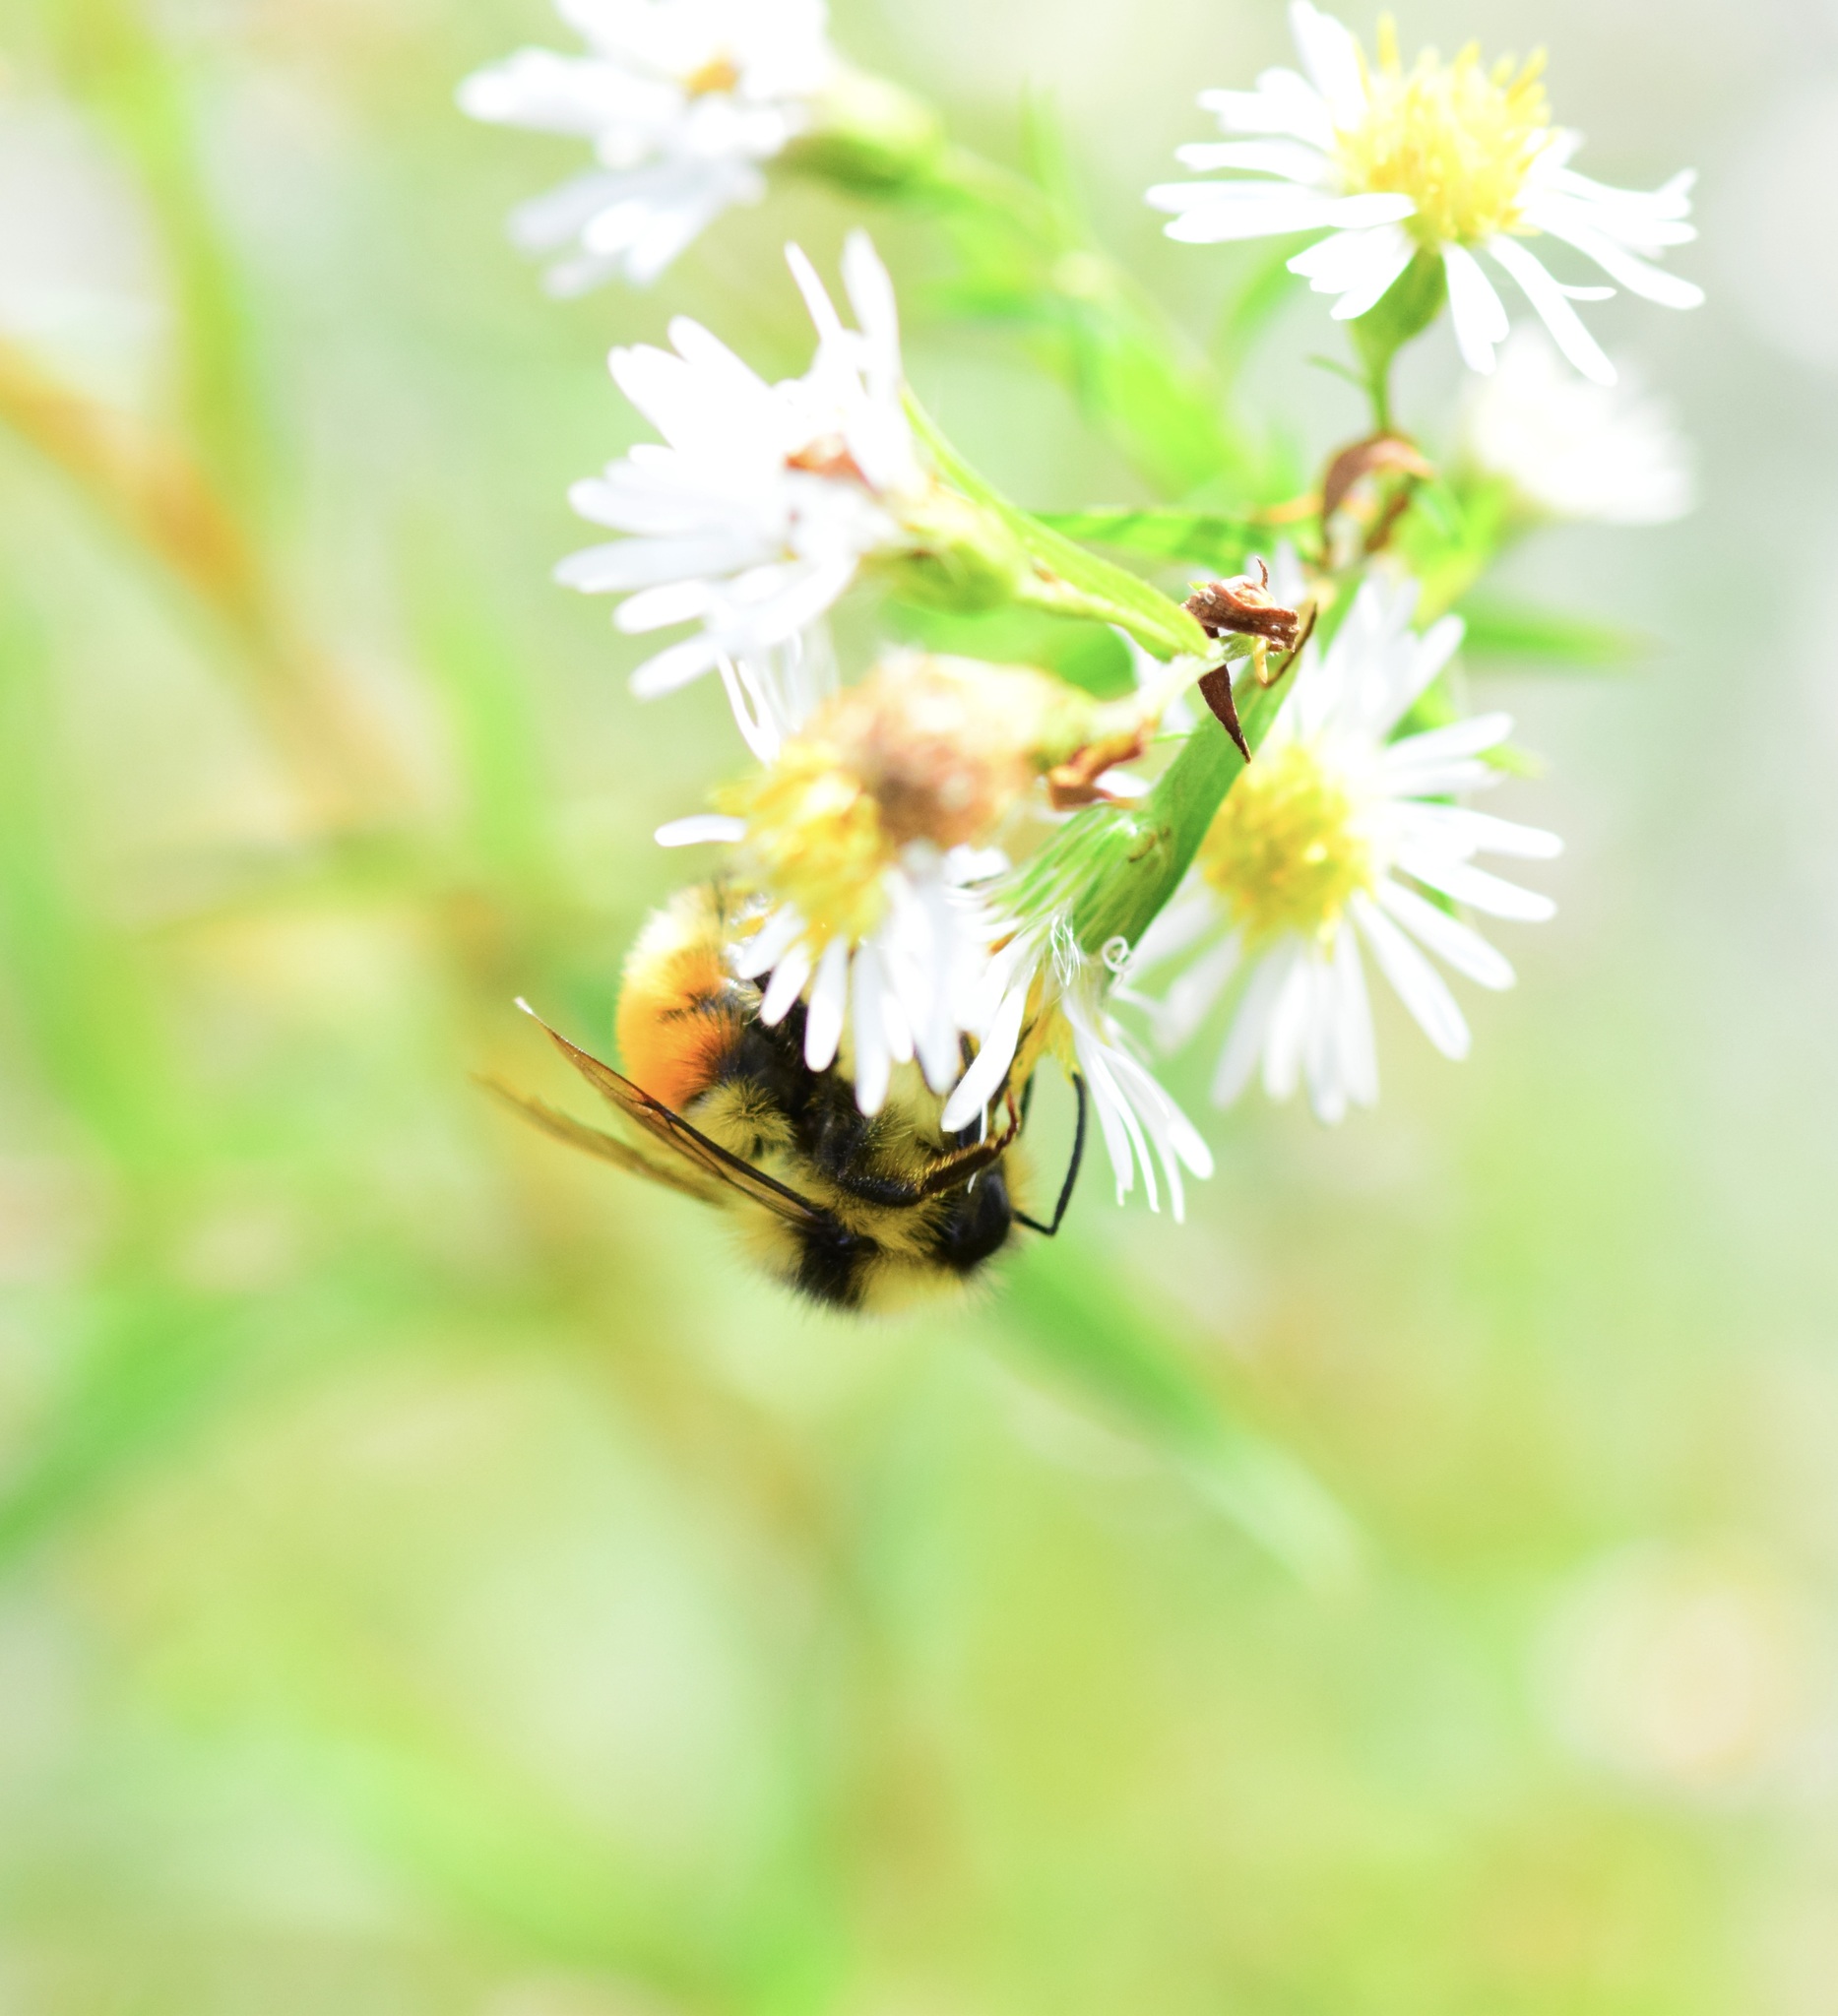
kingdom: Animalia
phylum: Arthropoda
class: Insecta
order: Hymenoptera
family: Apidae
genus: Bombus
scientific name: Bombus ternarius
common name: Tri-colored bumble bee
